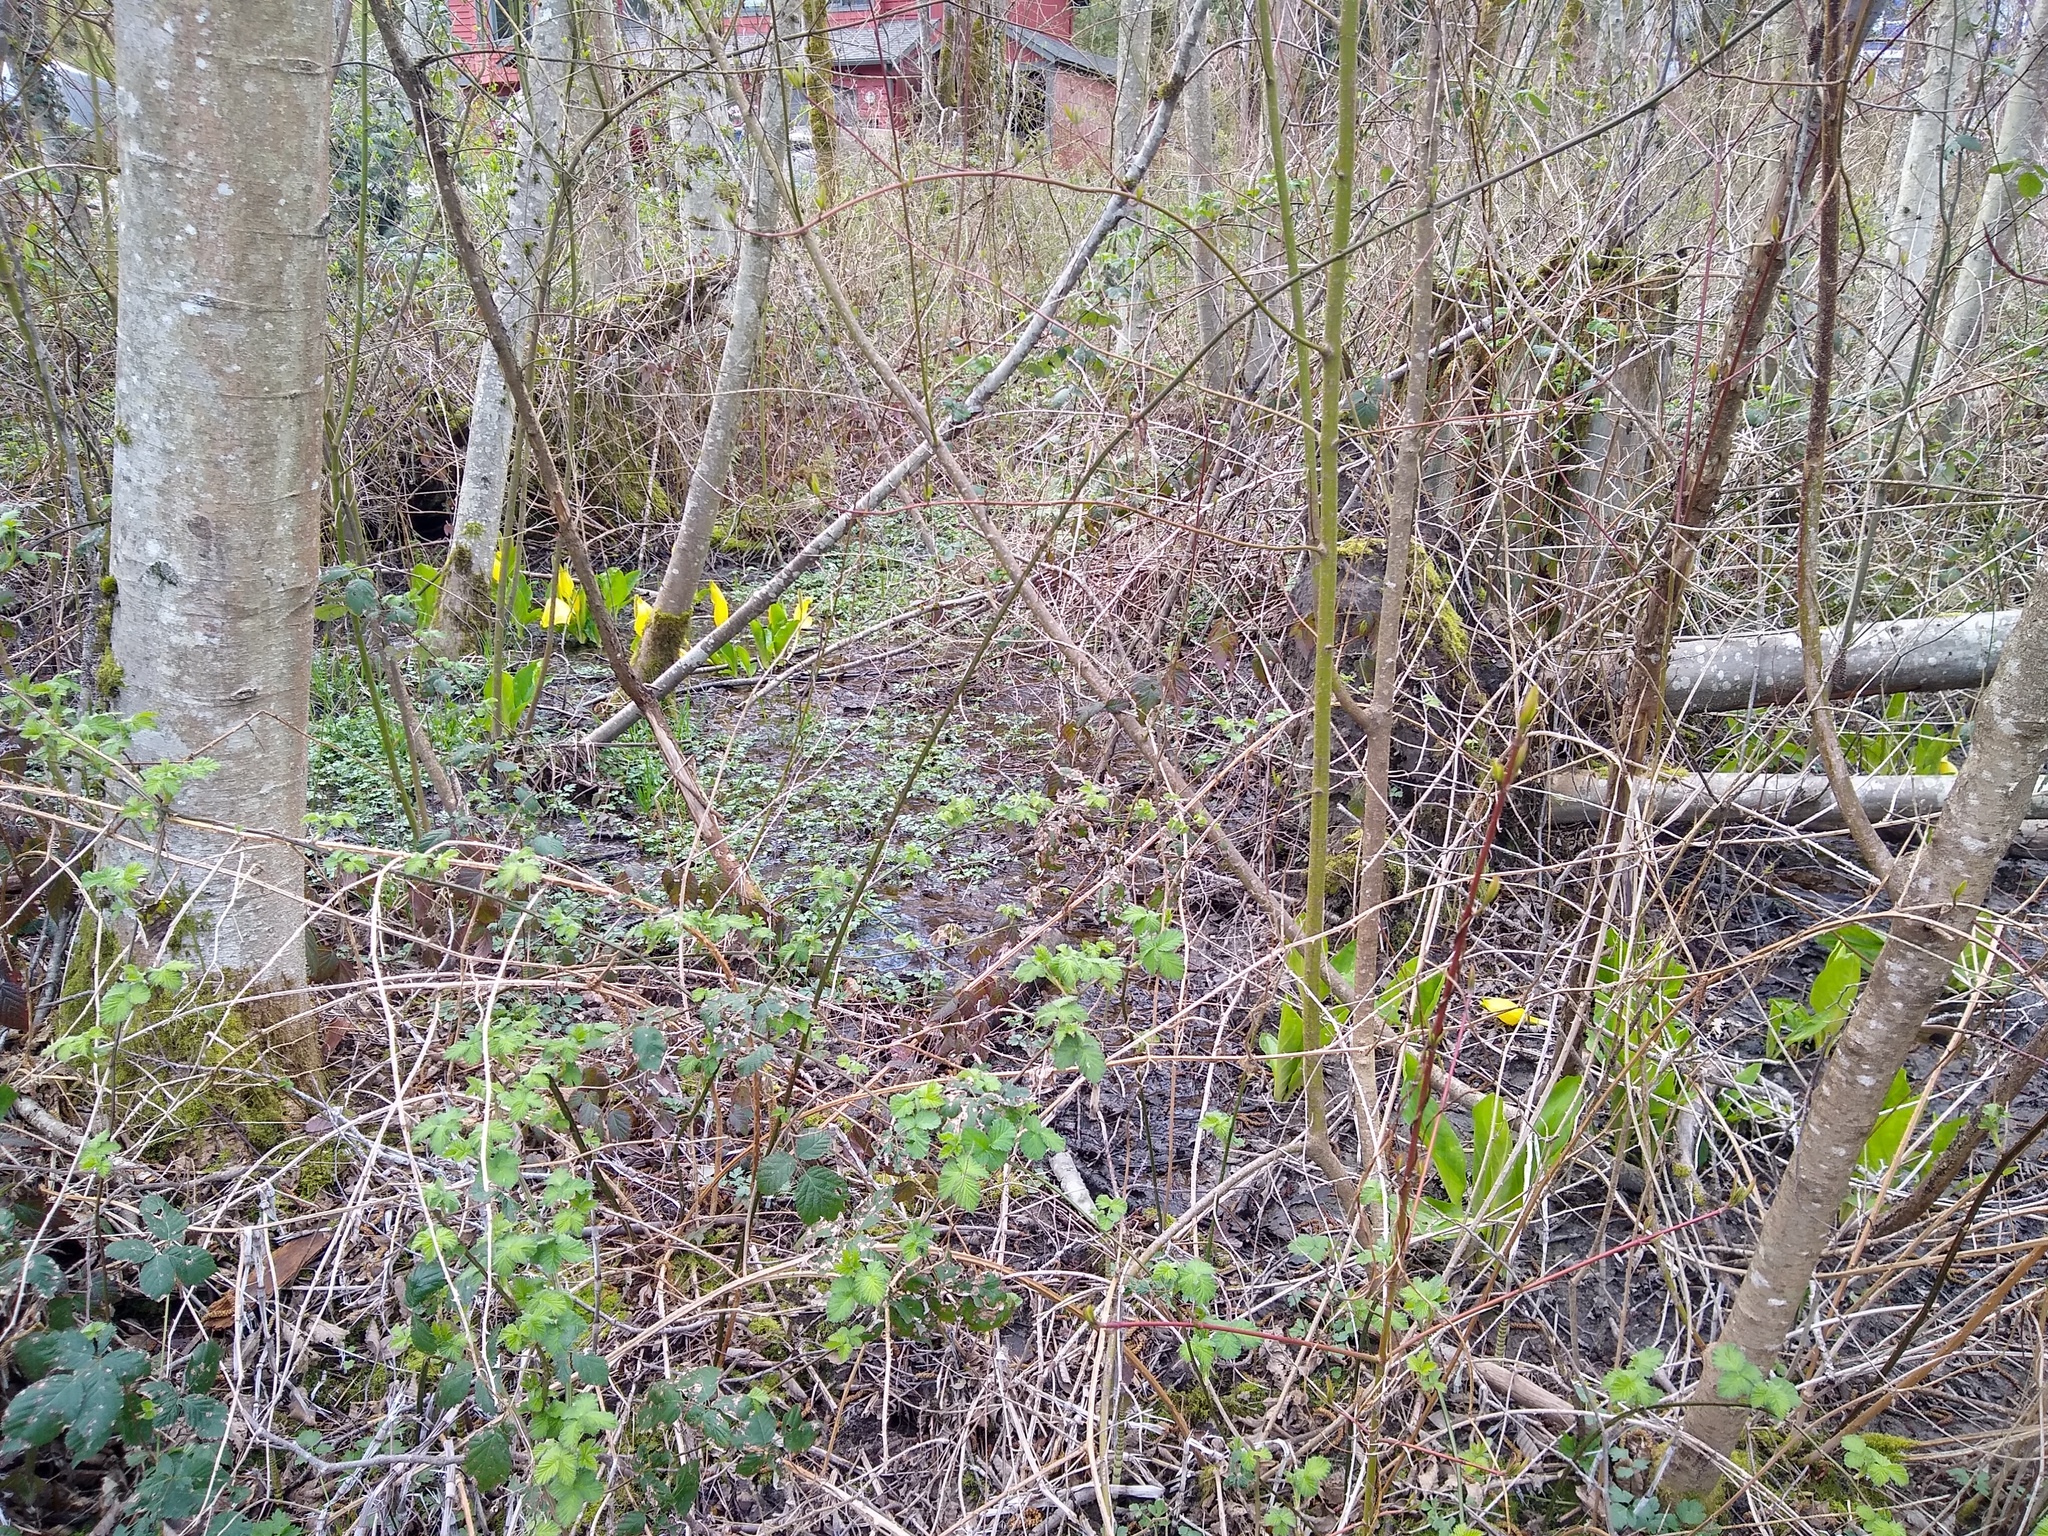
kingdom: Plantae
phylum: Tracheophyta
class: Liliopsida
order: Alismatales
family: Araceae
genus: Lysichiton
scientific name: Lysichiton americanus
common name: American skunk cabbage
